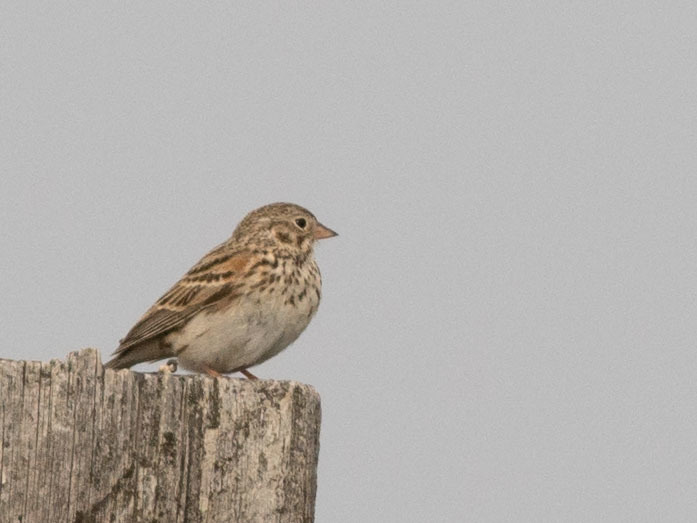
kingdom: Animalia
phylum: Chordata
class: Aves
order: Passeriformes
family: Passerellidae
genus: Pooecetes
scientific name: Pooecetes gramineus
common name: Vesper sparrow
